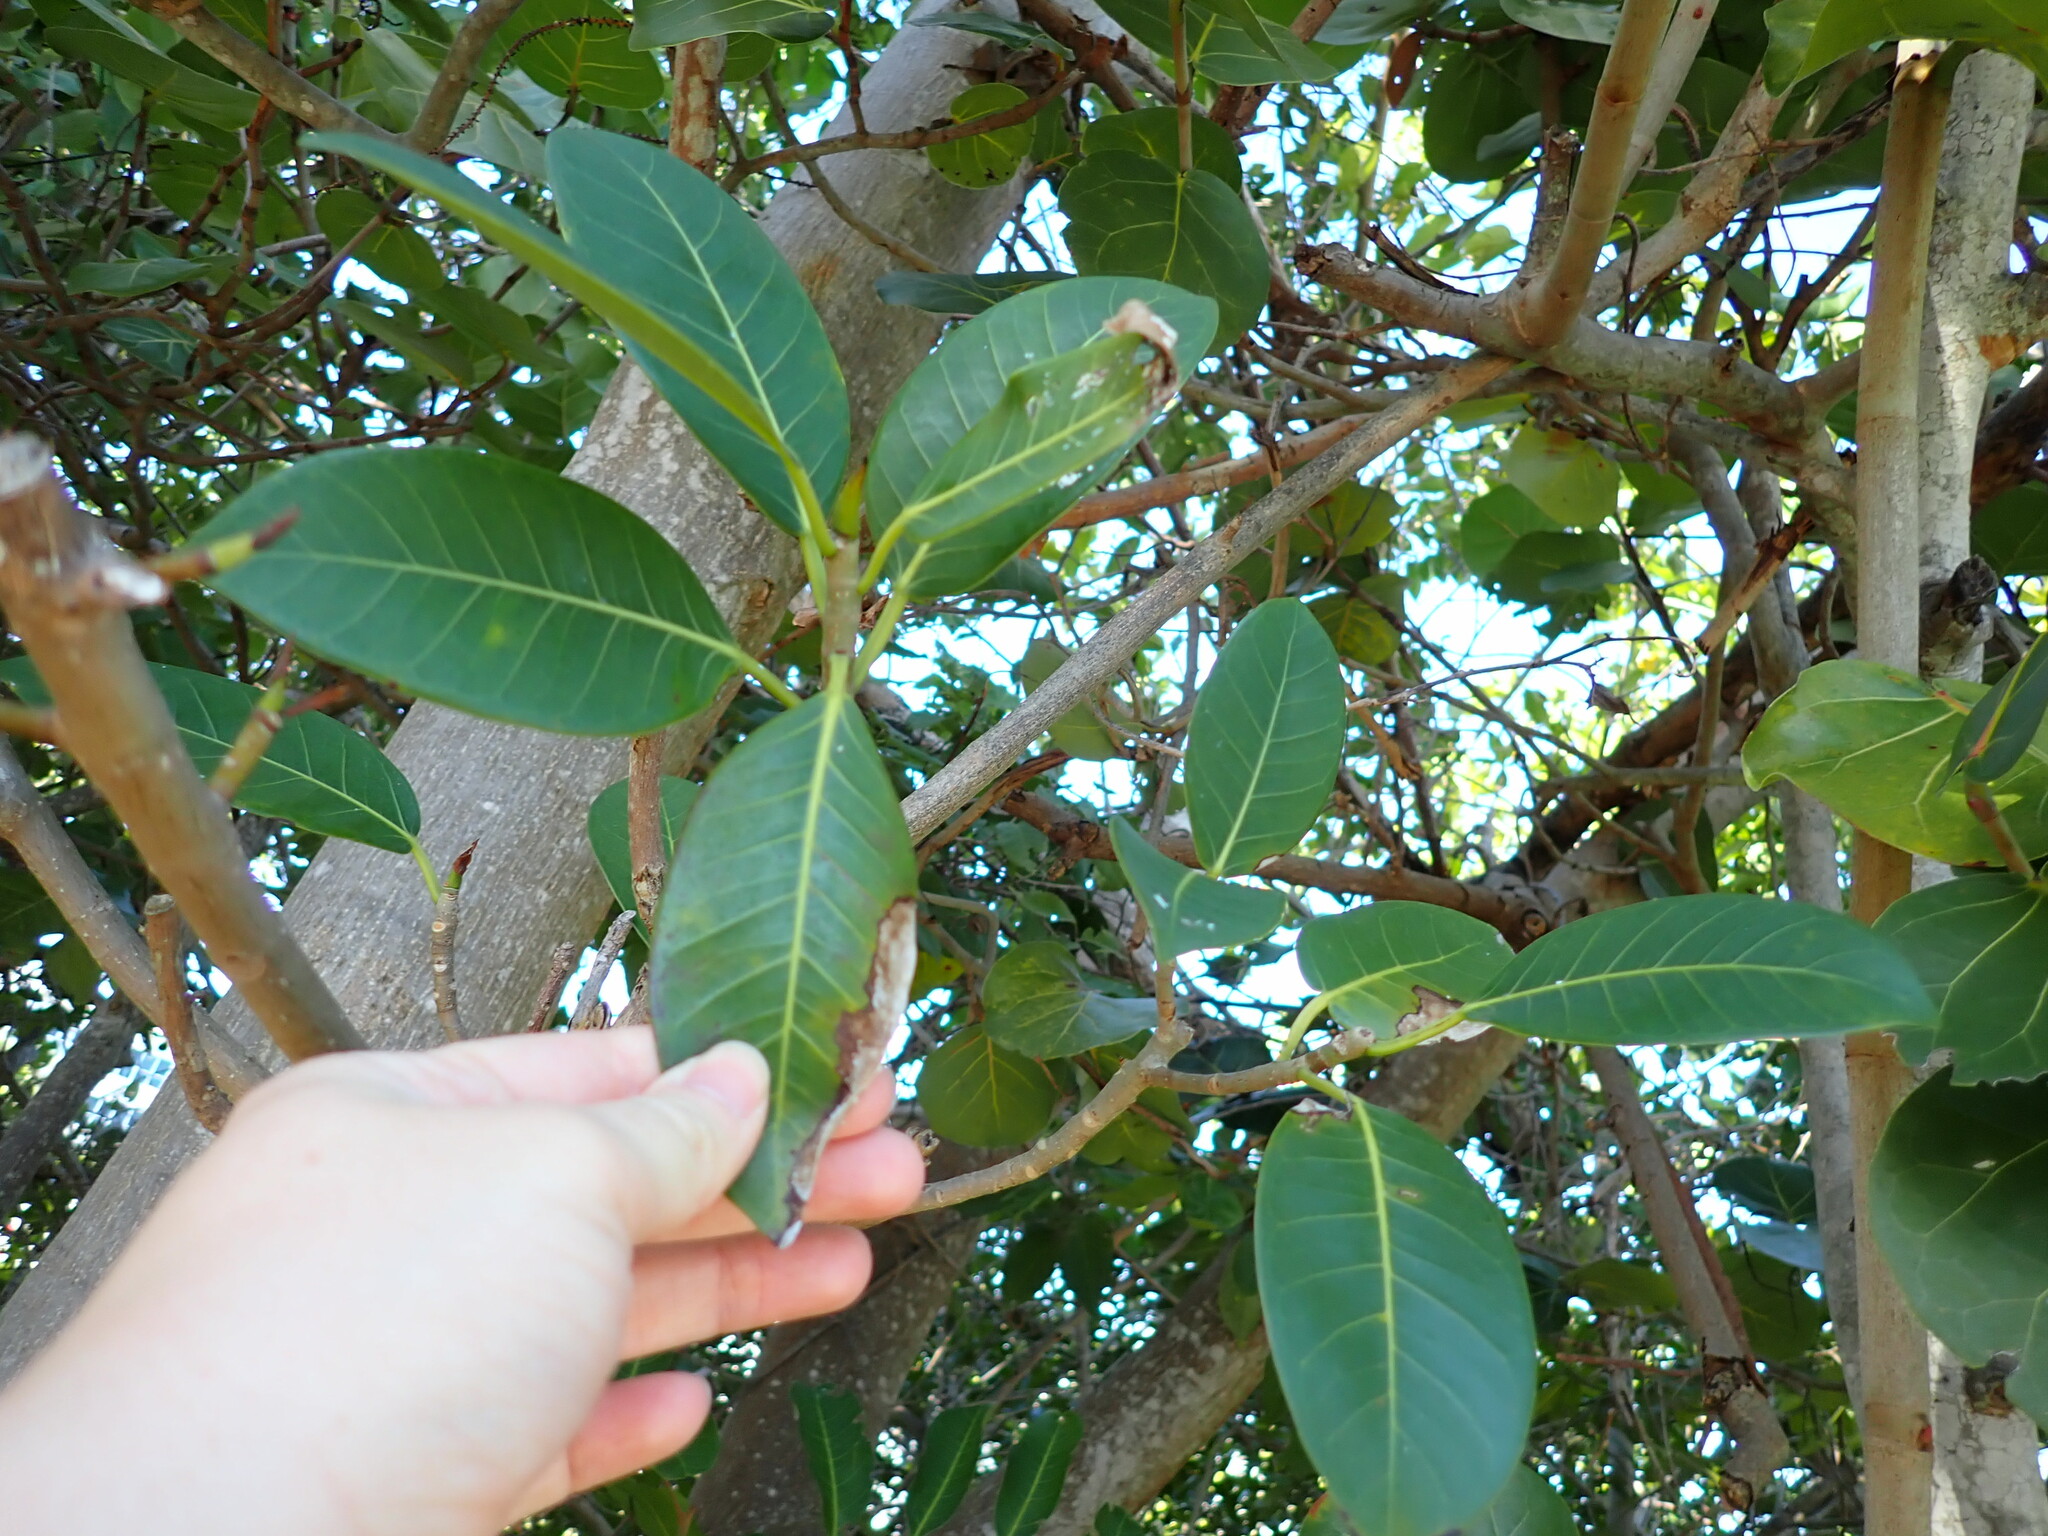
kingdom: Plantae
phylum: Tracheophyta
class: Magnoliopsida
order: Rosales
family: Moraceae
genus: Ficus
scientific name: Ficus aurea
